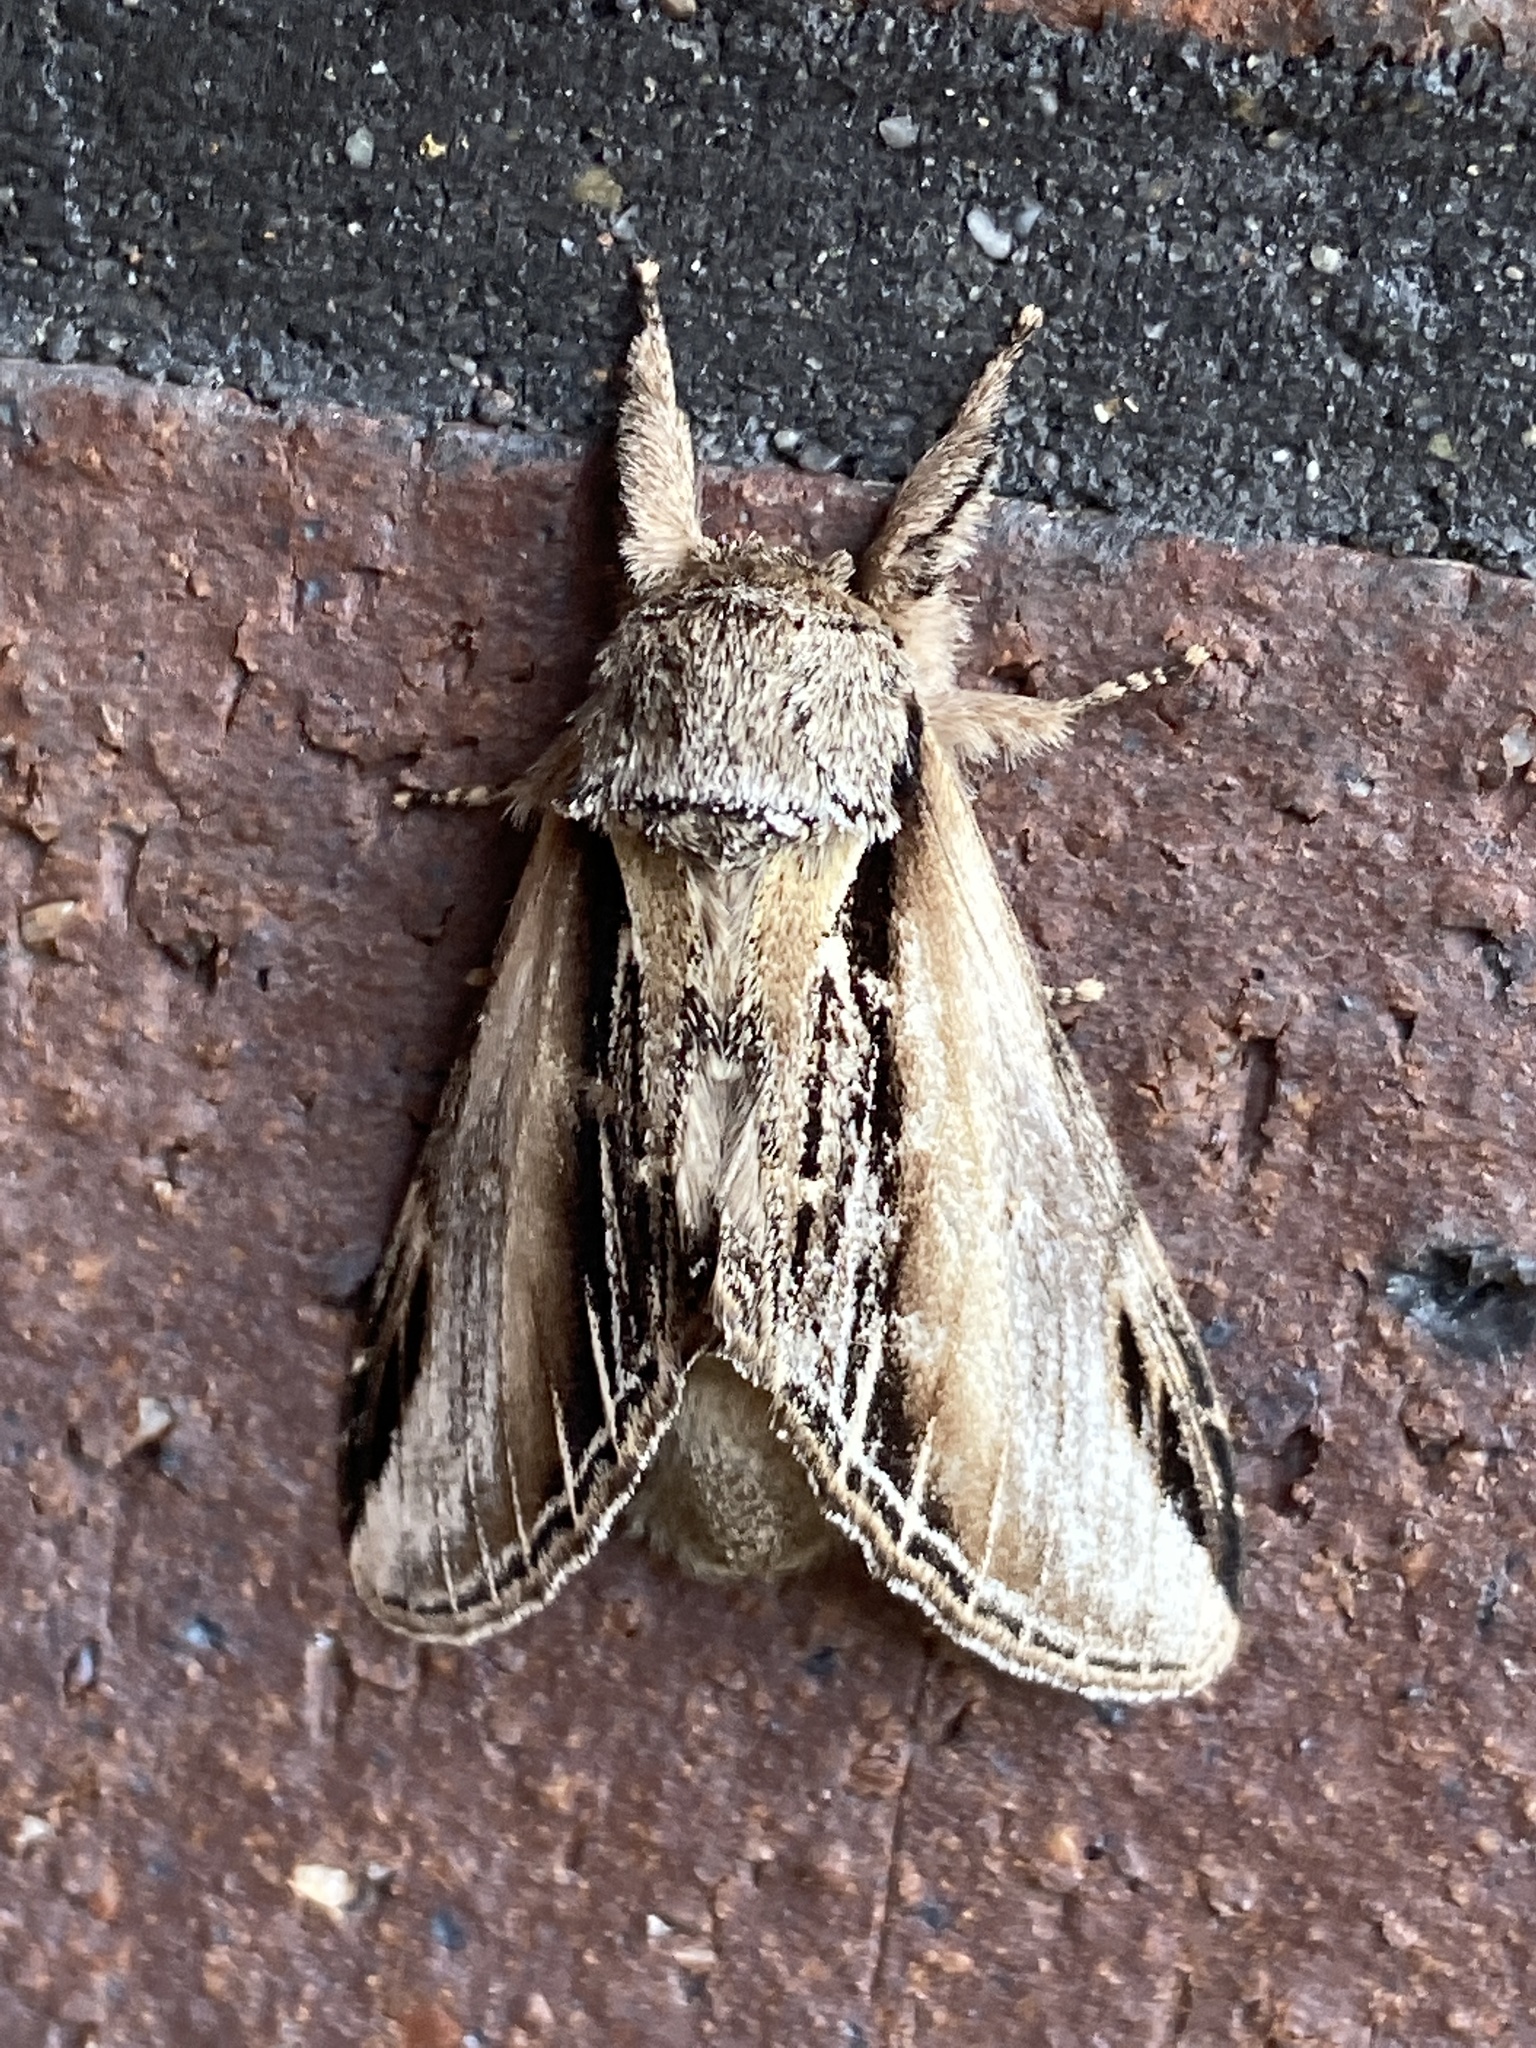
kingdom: Animalia
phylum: Arthropoda
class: Insecta
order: Lepidoptera
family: Notodontidae
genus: Pheosia
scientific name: Pheosia tremula
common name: Swallow prominent
